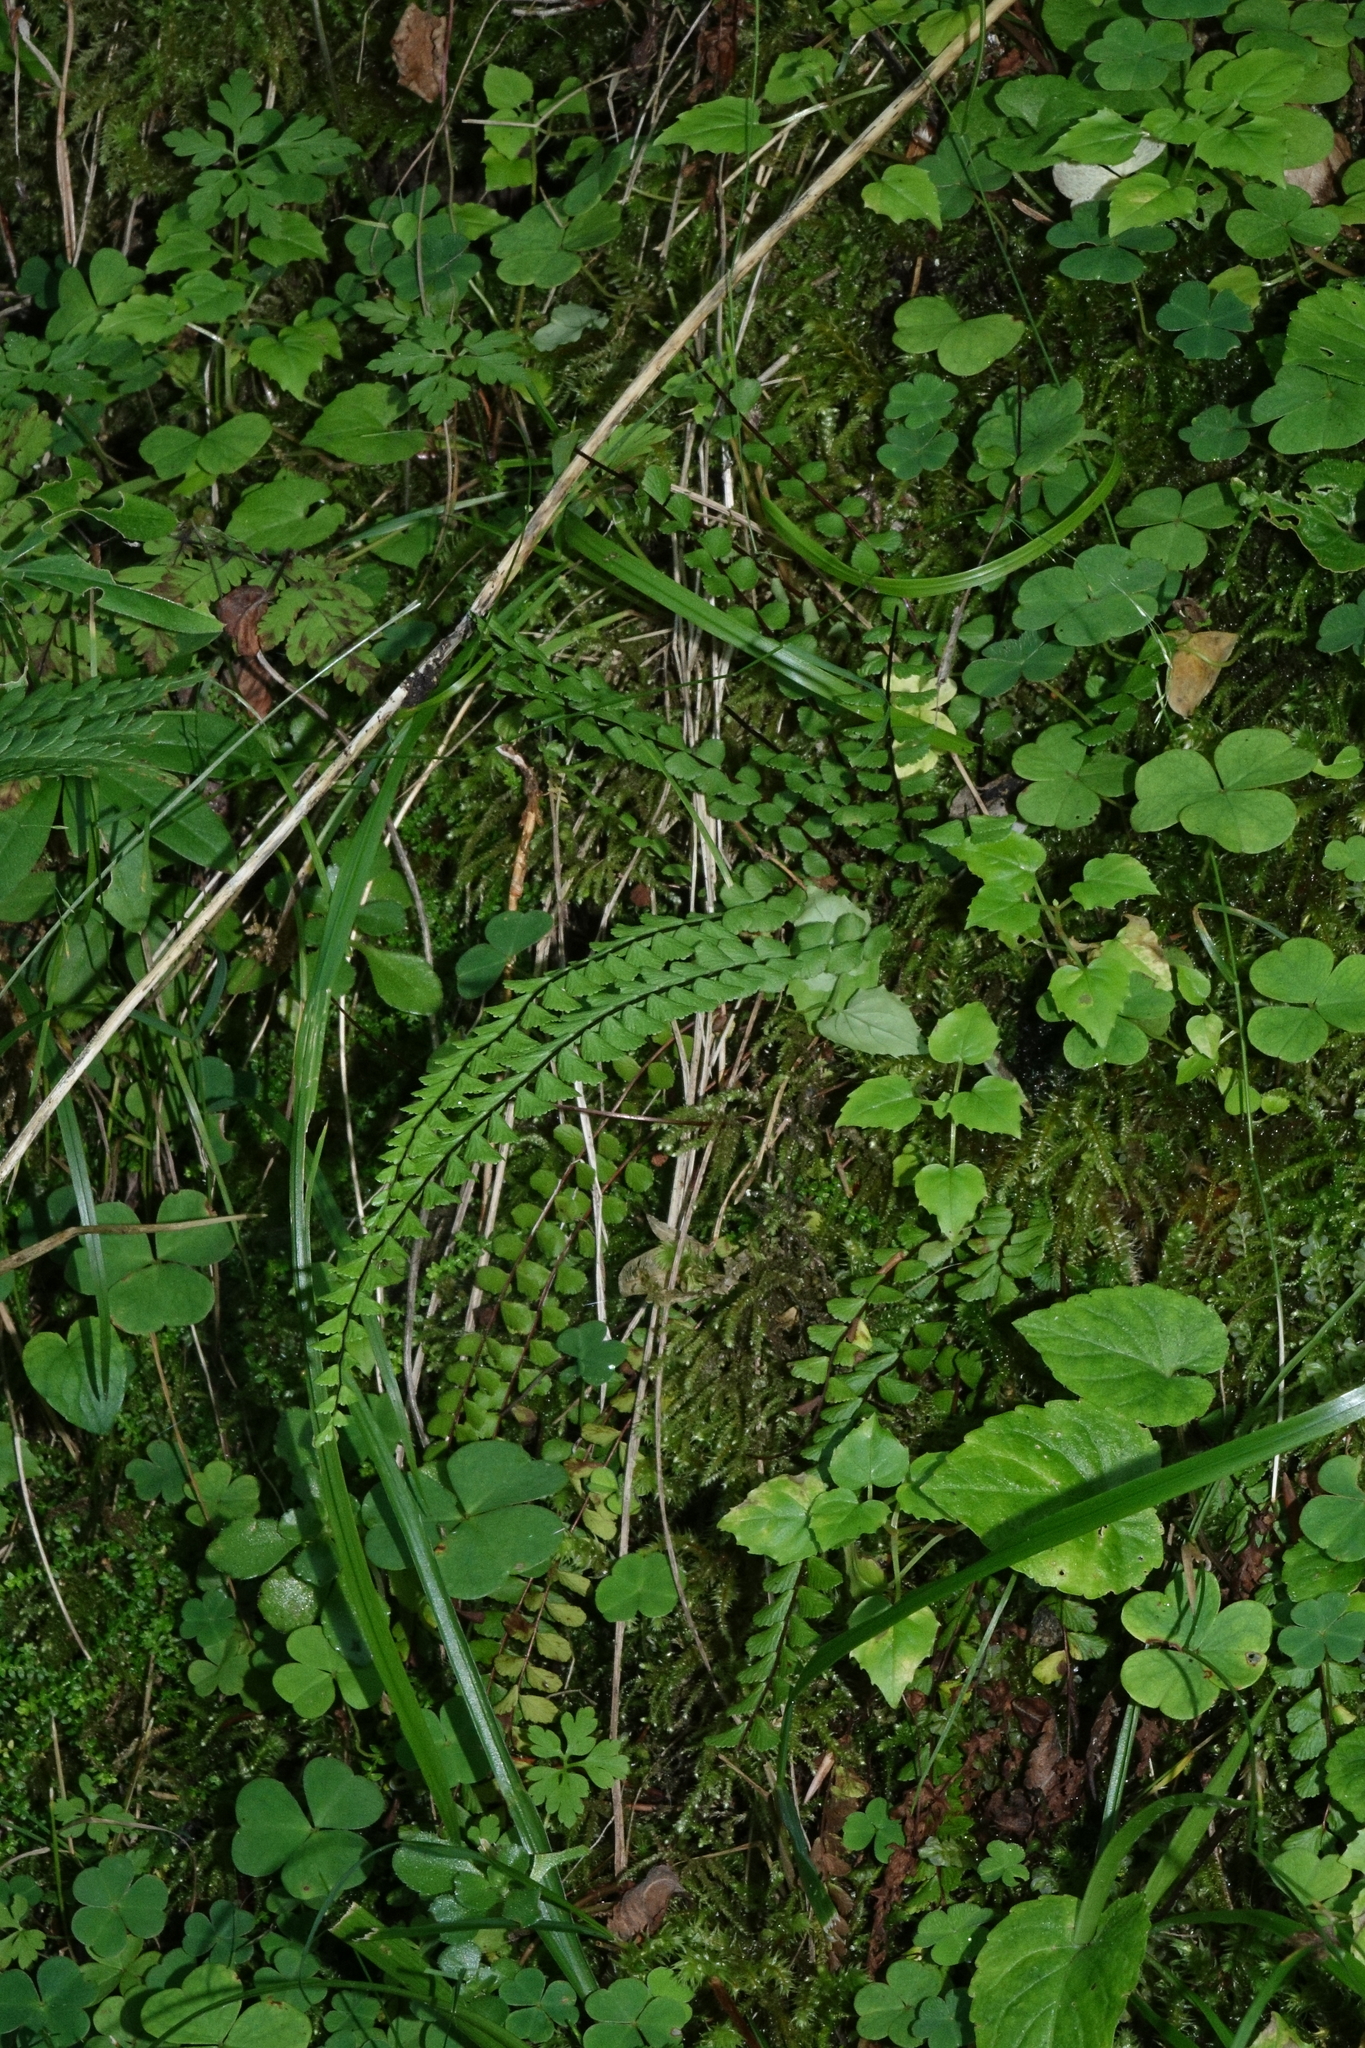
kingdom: Plantae
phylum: Tracheophyta
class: Polypodiopsida
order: Polypodiales
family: Aspleniaceae
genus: Asplenium
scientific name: Asplenium trichomanes
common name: Maidenhair spleenwort
